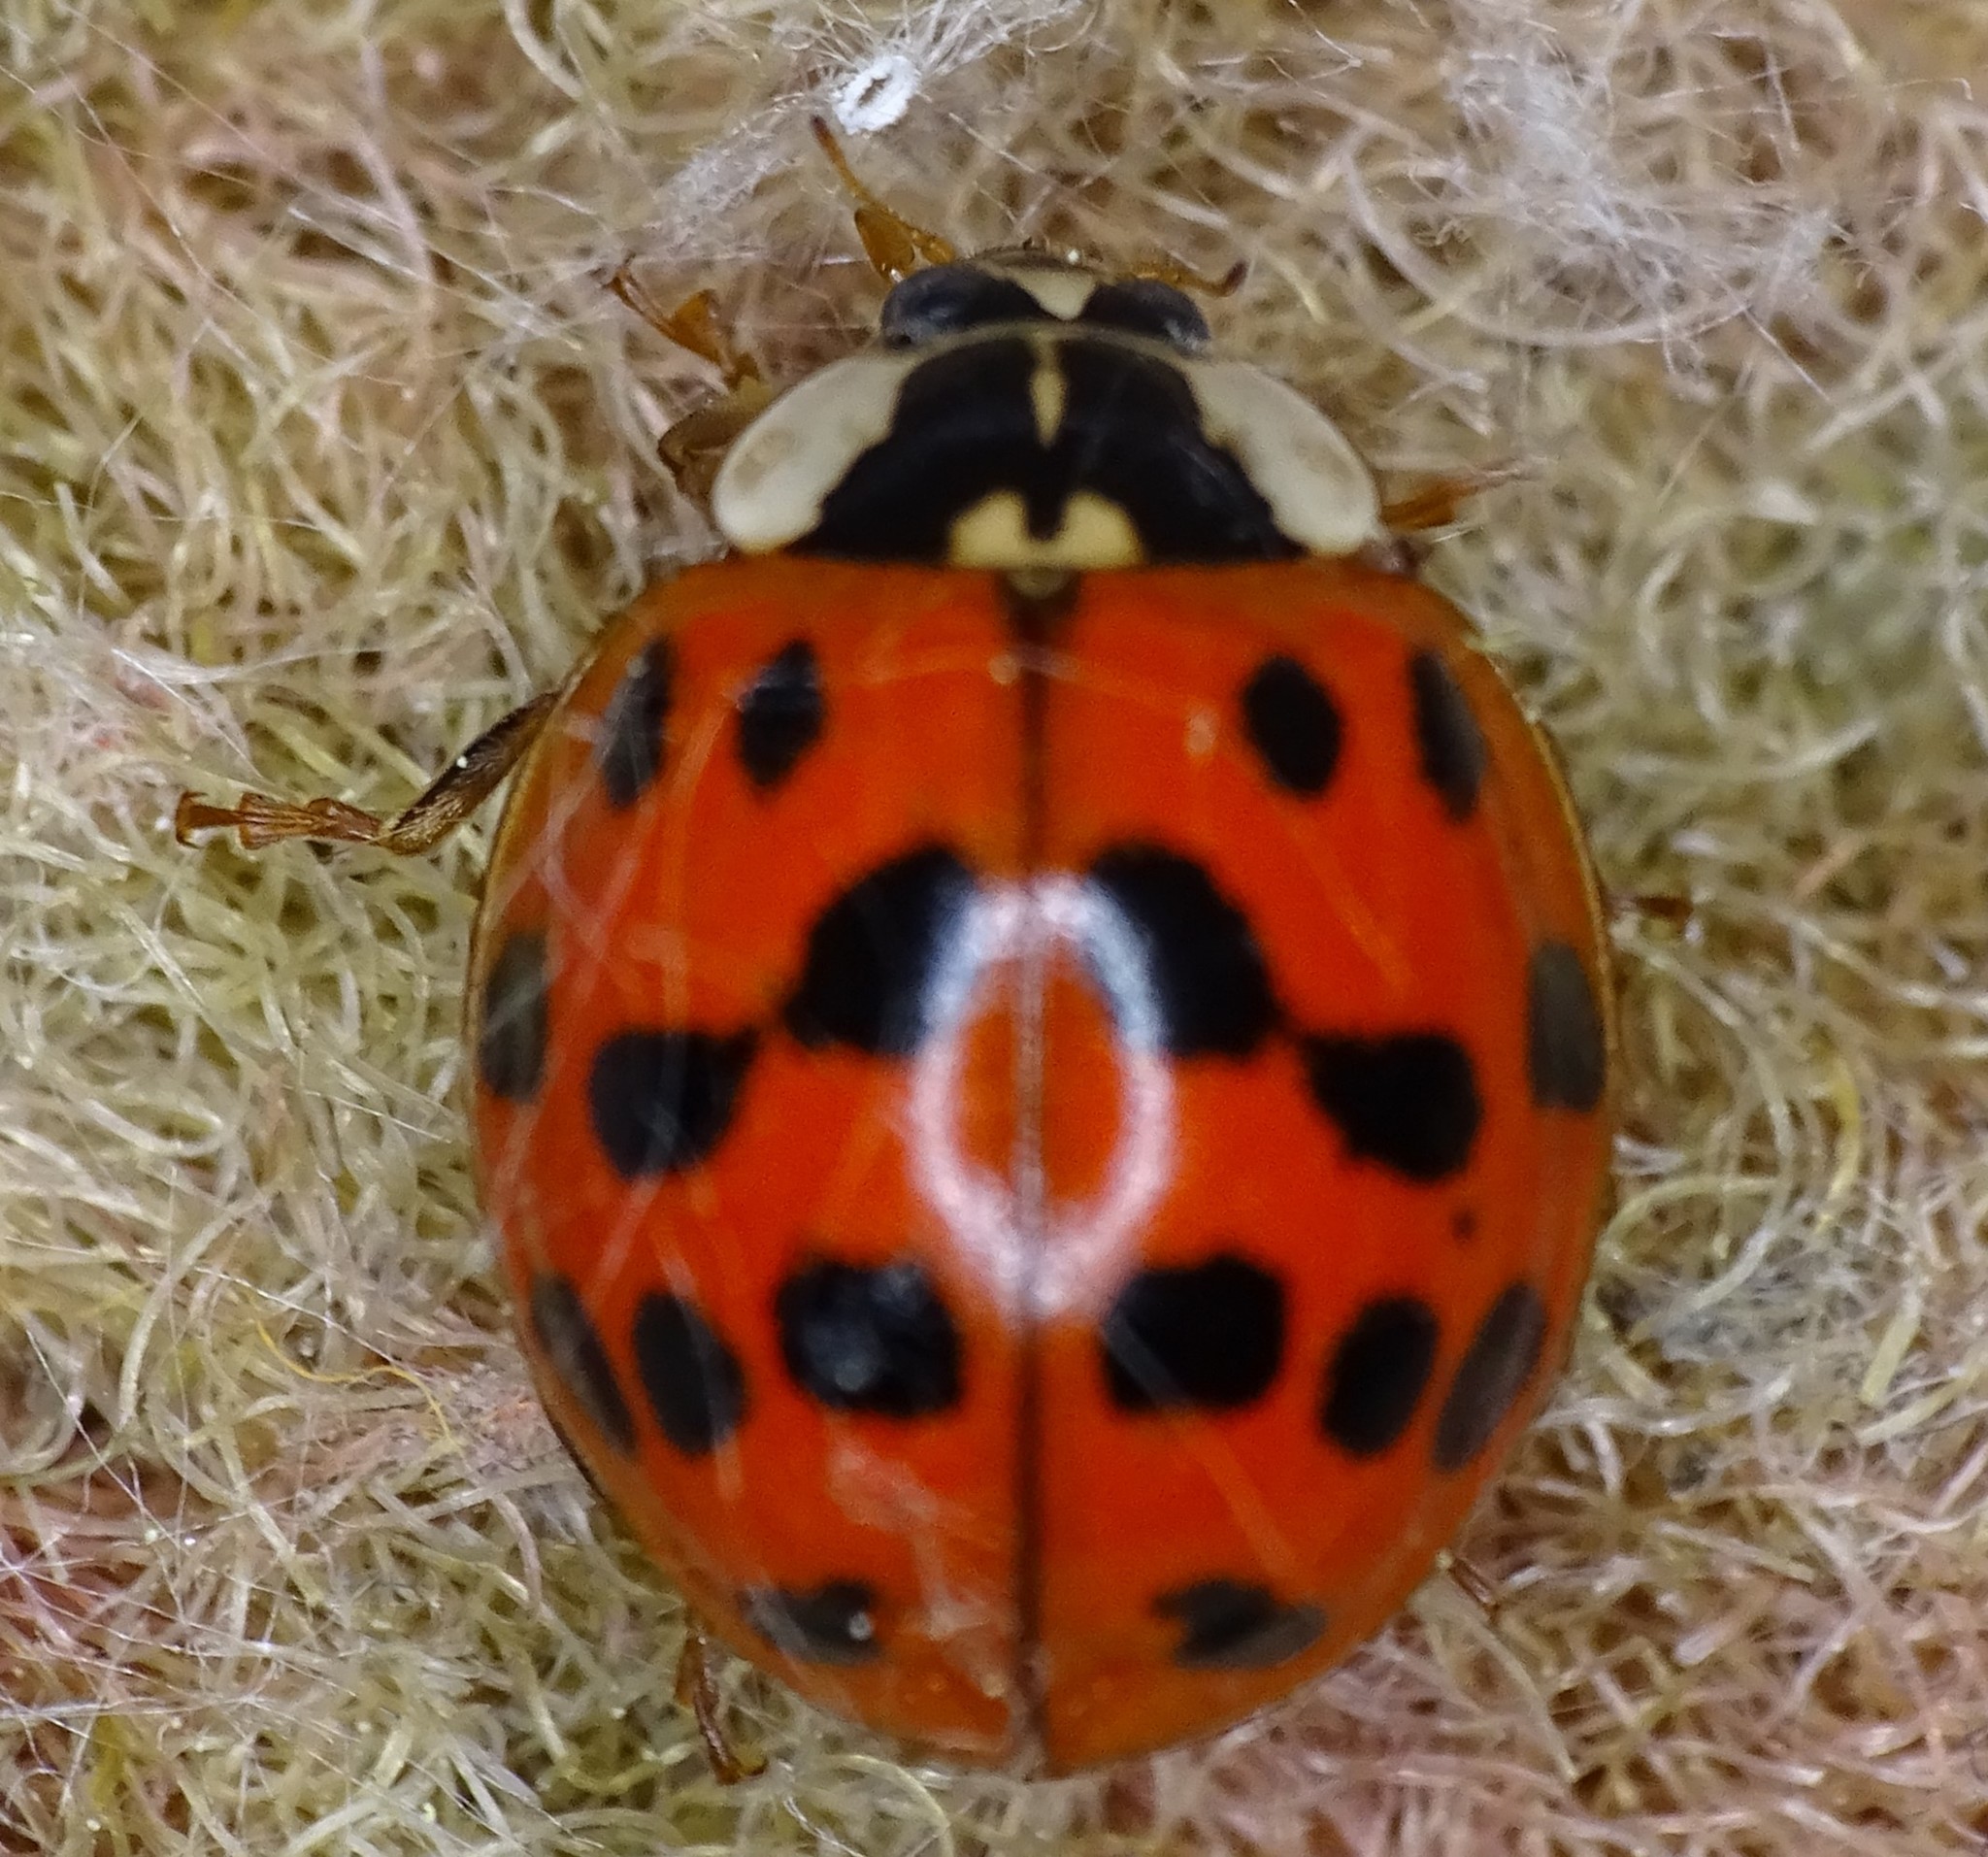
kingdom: Animalia
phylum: Arthropoda
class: Insecta
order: Coleoptera
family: Coccinellidae
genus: Harmonia
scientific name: Harmonia axyridis
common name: Harlequin ladybird
